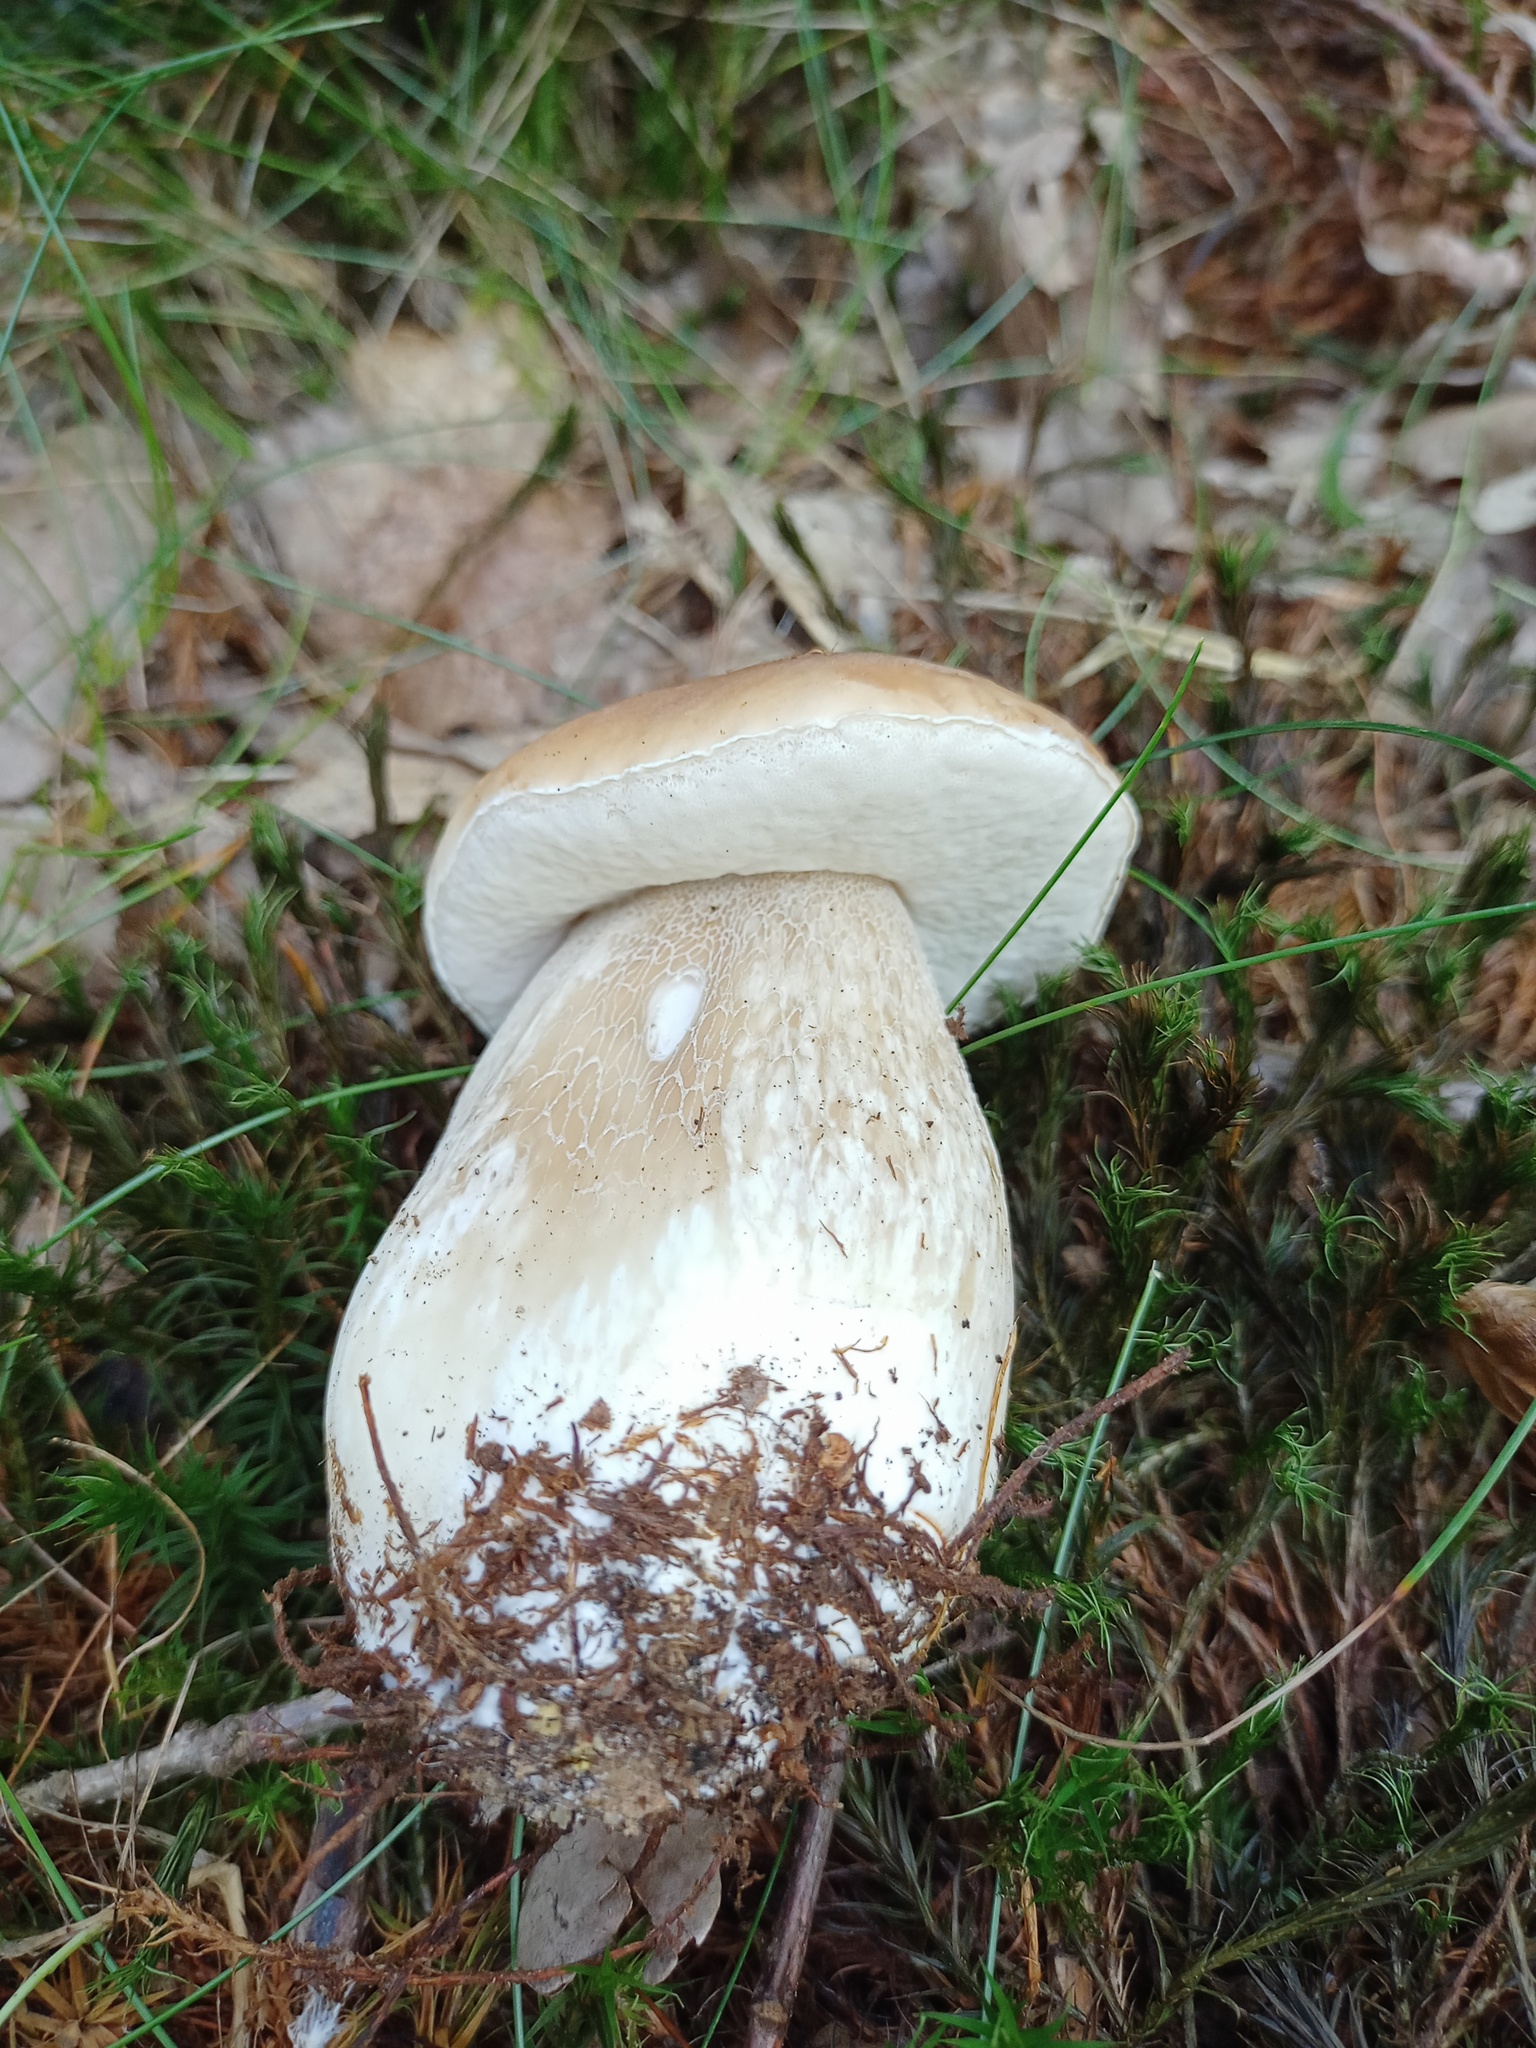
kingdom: Fungi
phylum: Basidiomycota
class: Agaricomycetes
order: Boletales
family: Boletaceae
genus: Boletus
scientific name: Boletus edulis
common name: Cep
